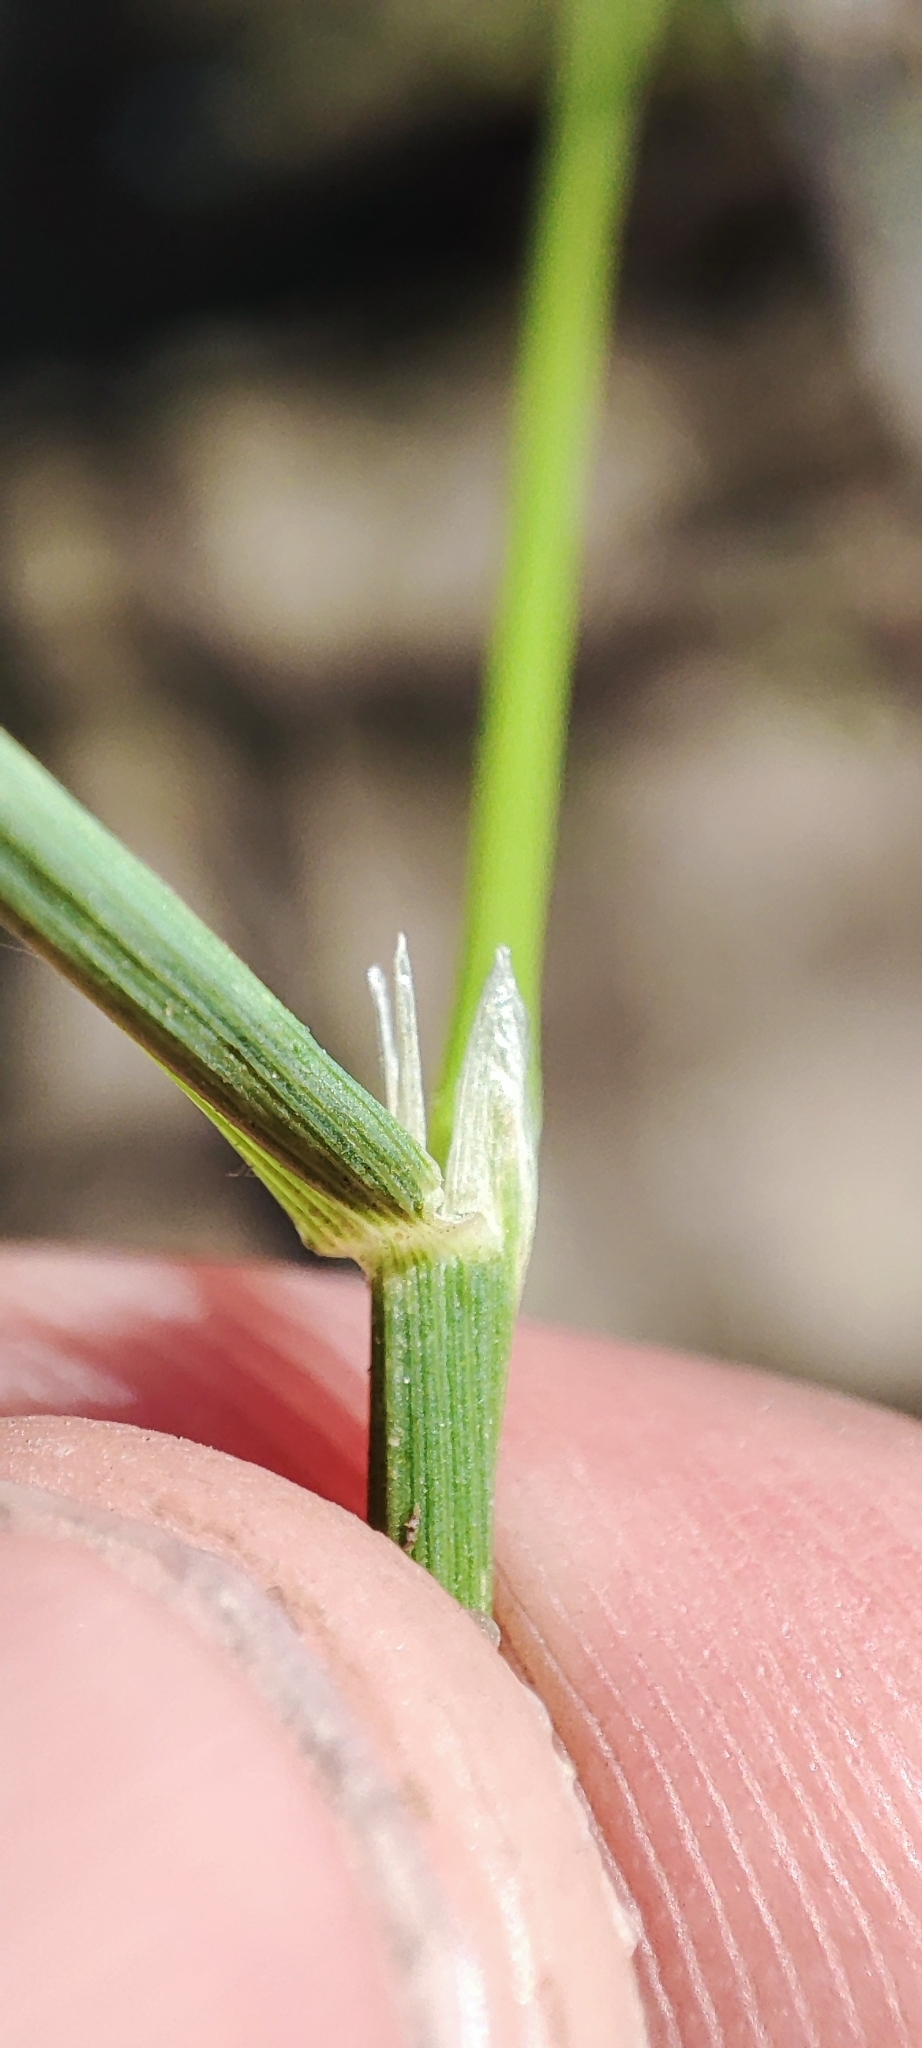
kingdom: Plantae
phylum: Tracheophyta
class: Liliopsida
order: Poales
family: Poaceae
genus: Agrostis
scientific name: Agrostis gigantea
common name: Black bent
